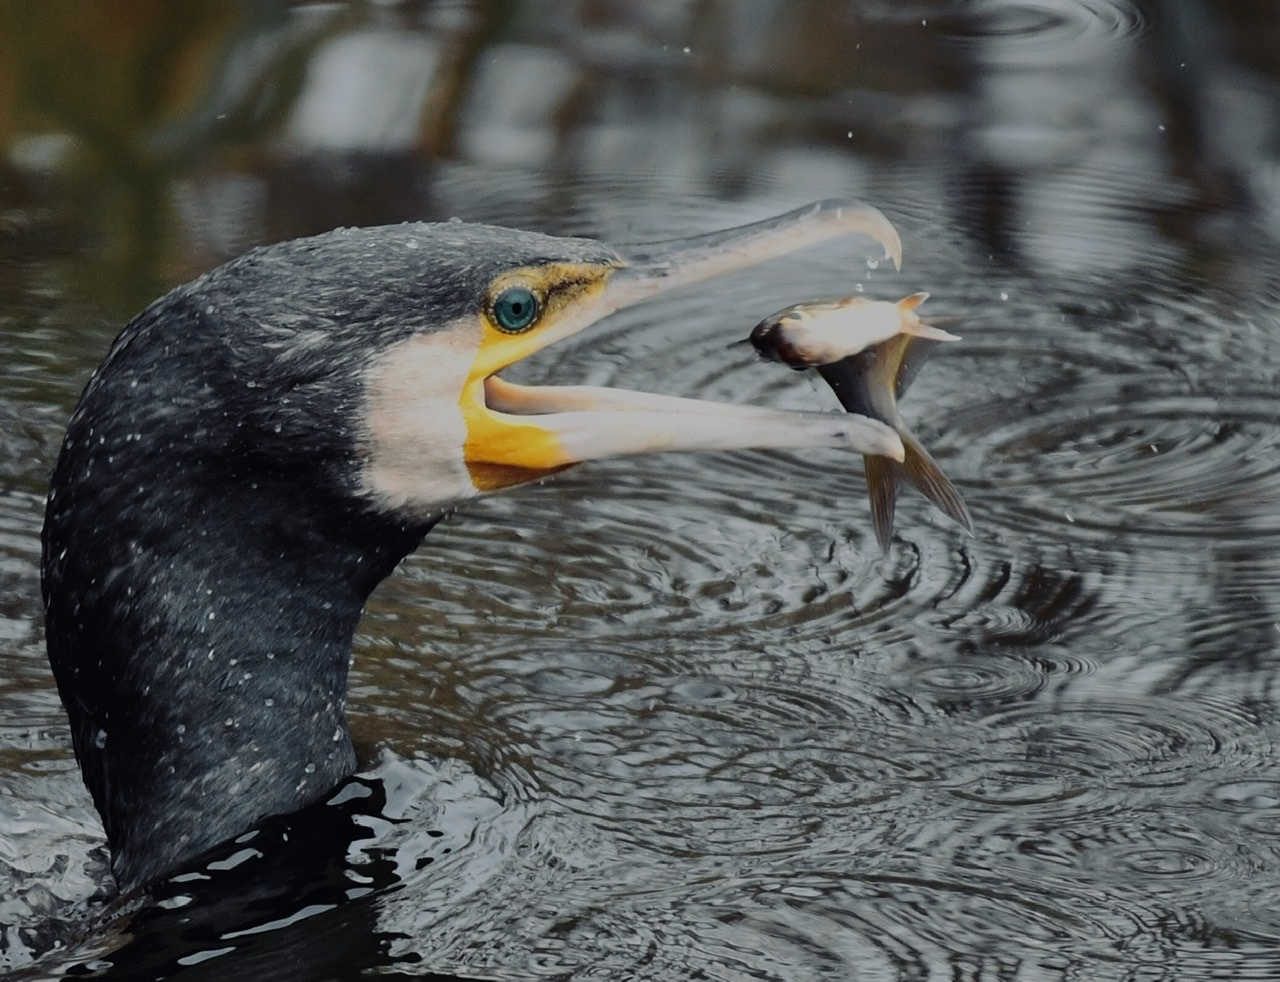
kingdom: Animalia
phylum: Chordata
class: Aves
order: Suliformes
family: Phalacrocoracidae
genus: Phalacrocorax
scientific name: Phalacrocorax carbo
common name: Great cormorant
